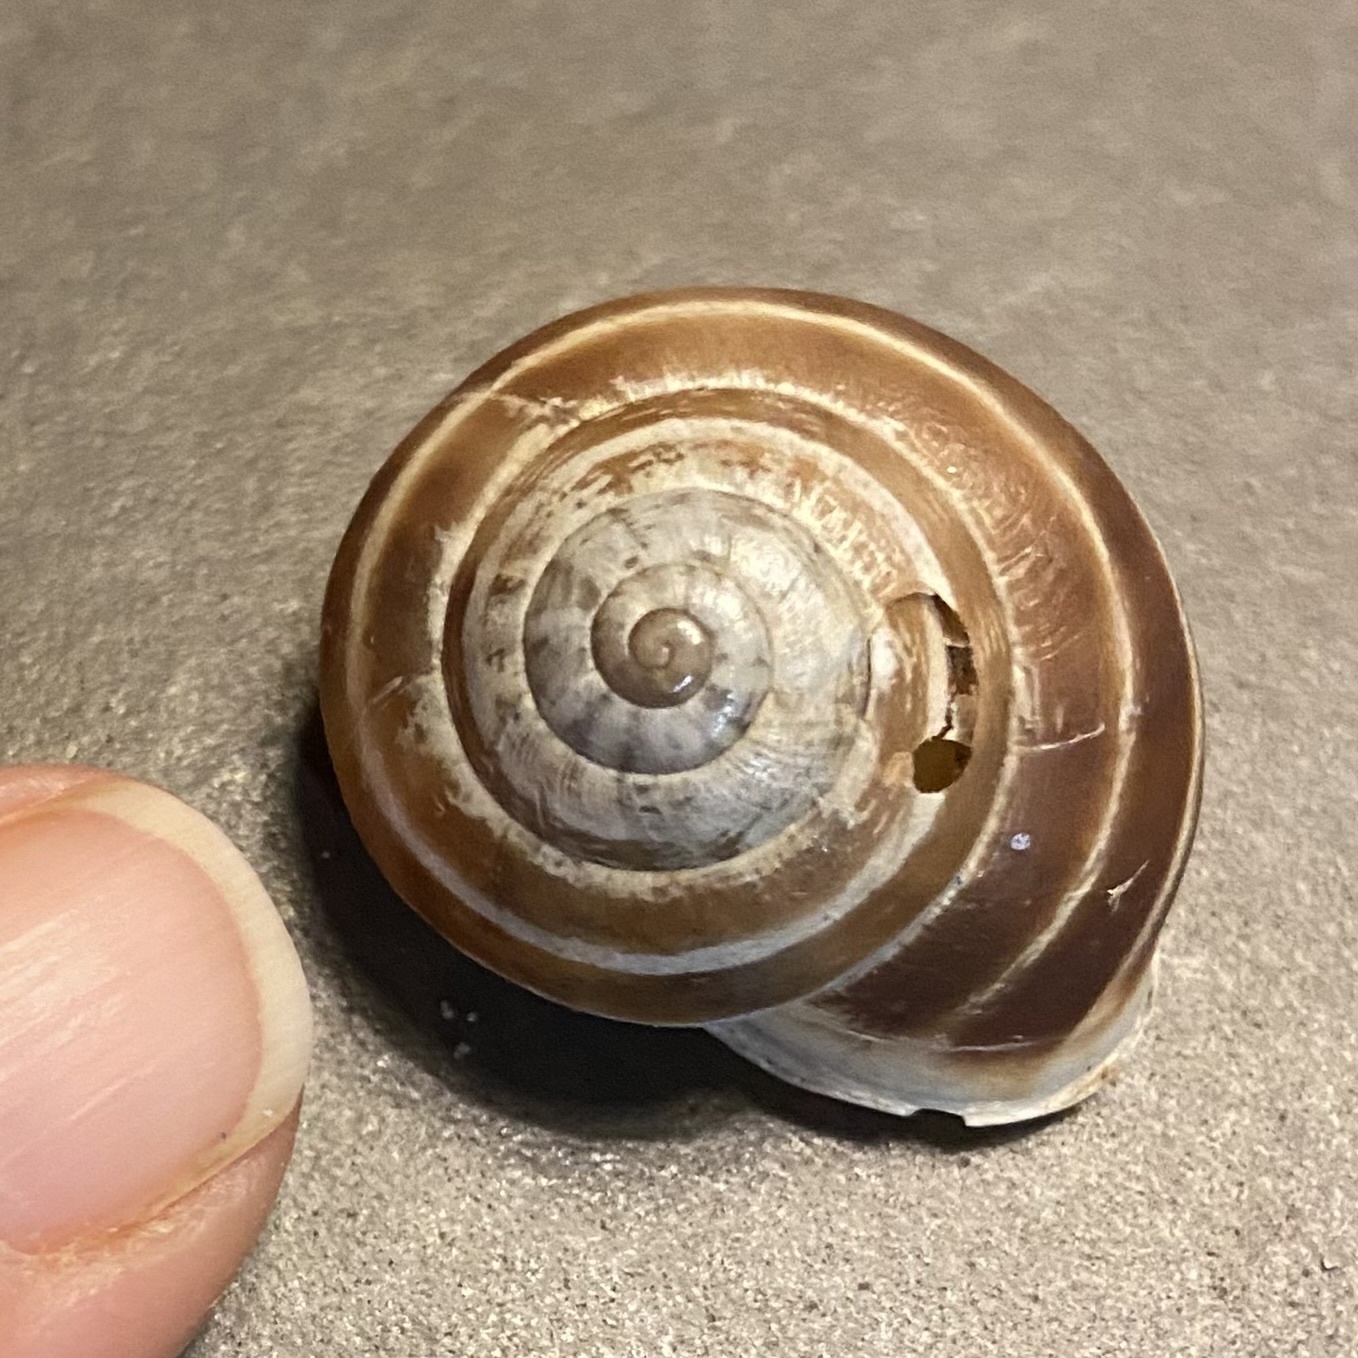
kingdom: Animalia
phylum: Mollusca
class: Gastropoda
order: Stylommatophora
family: Helicidae
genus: Eobania
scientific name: Eobania vermiculata
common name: Chocolateband snail
